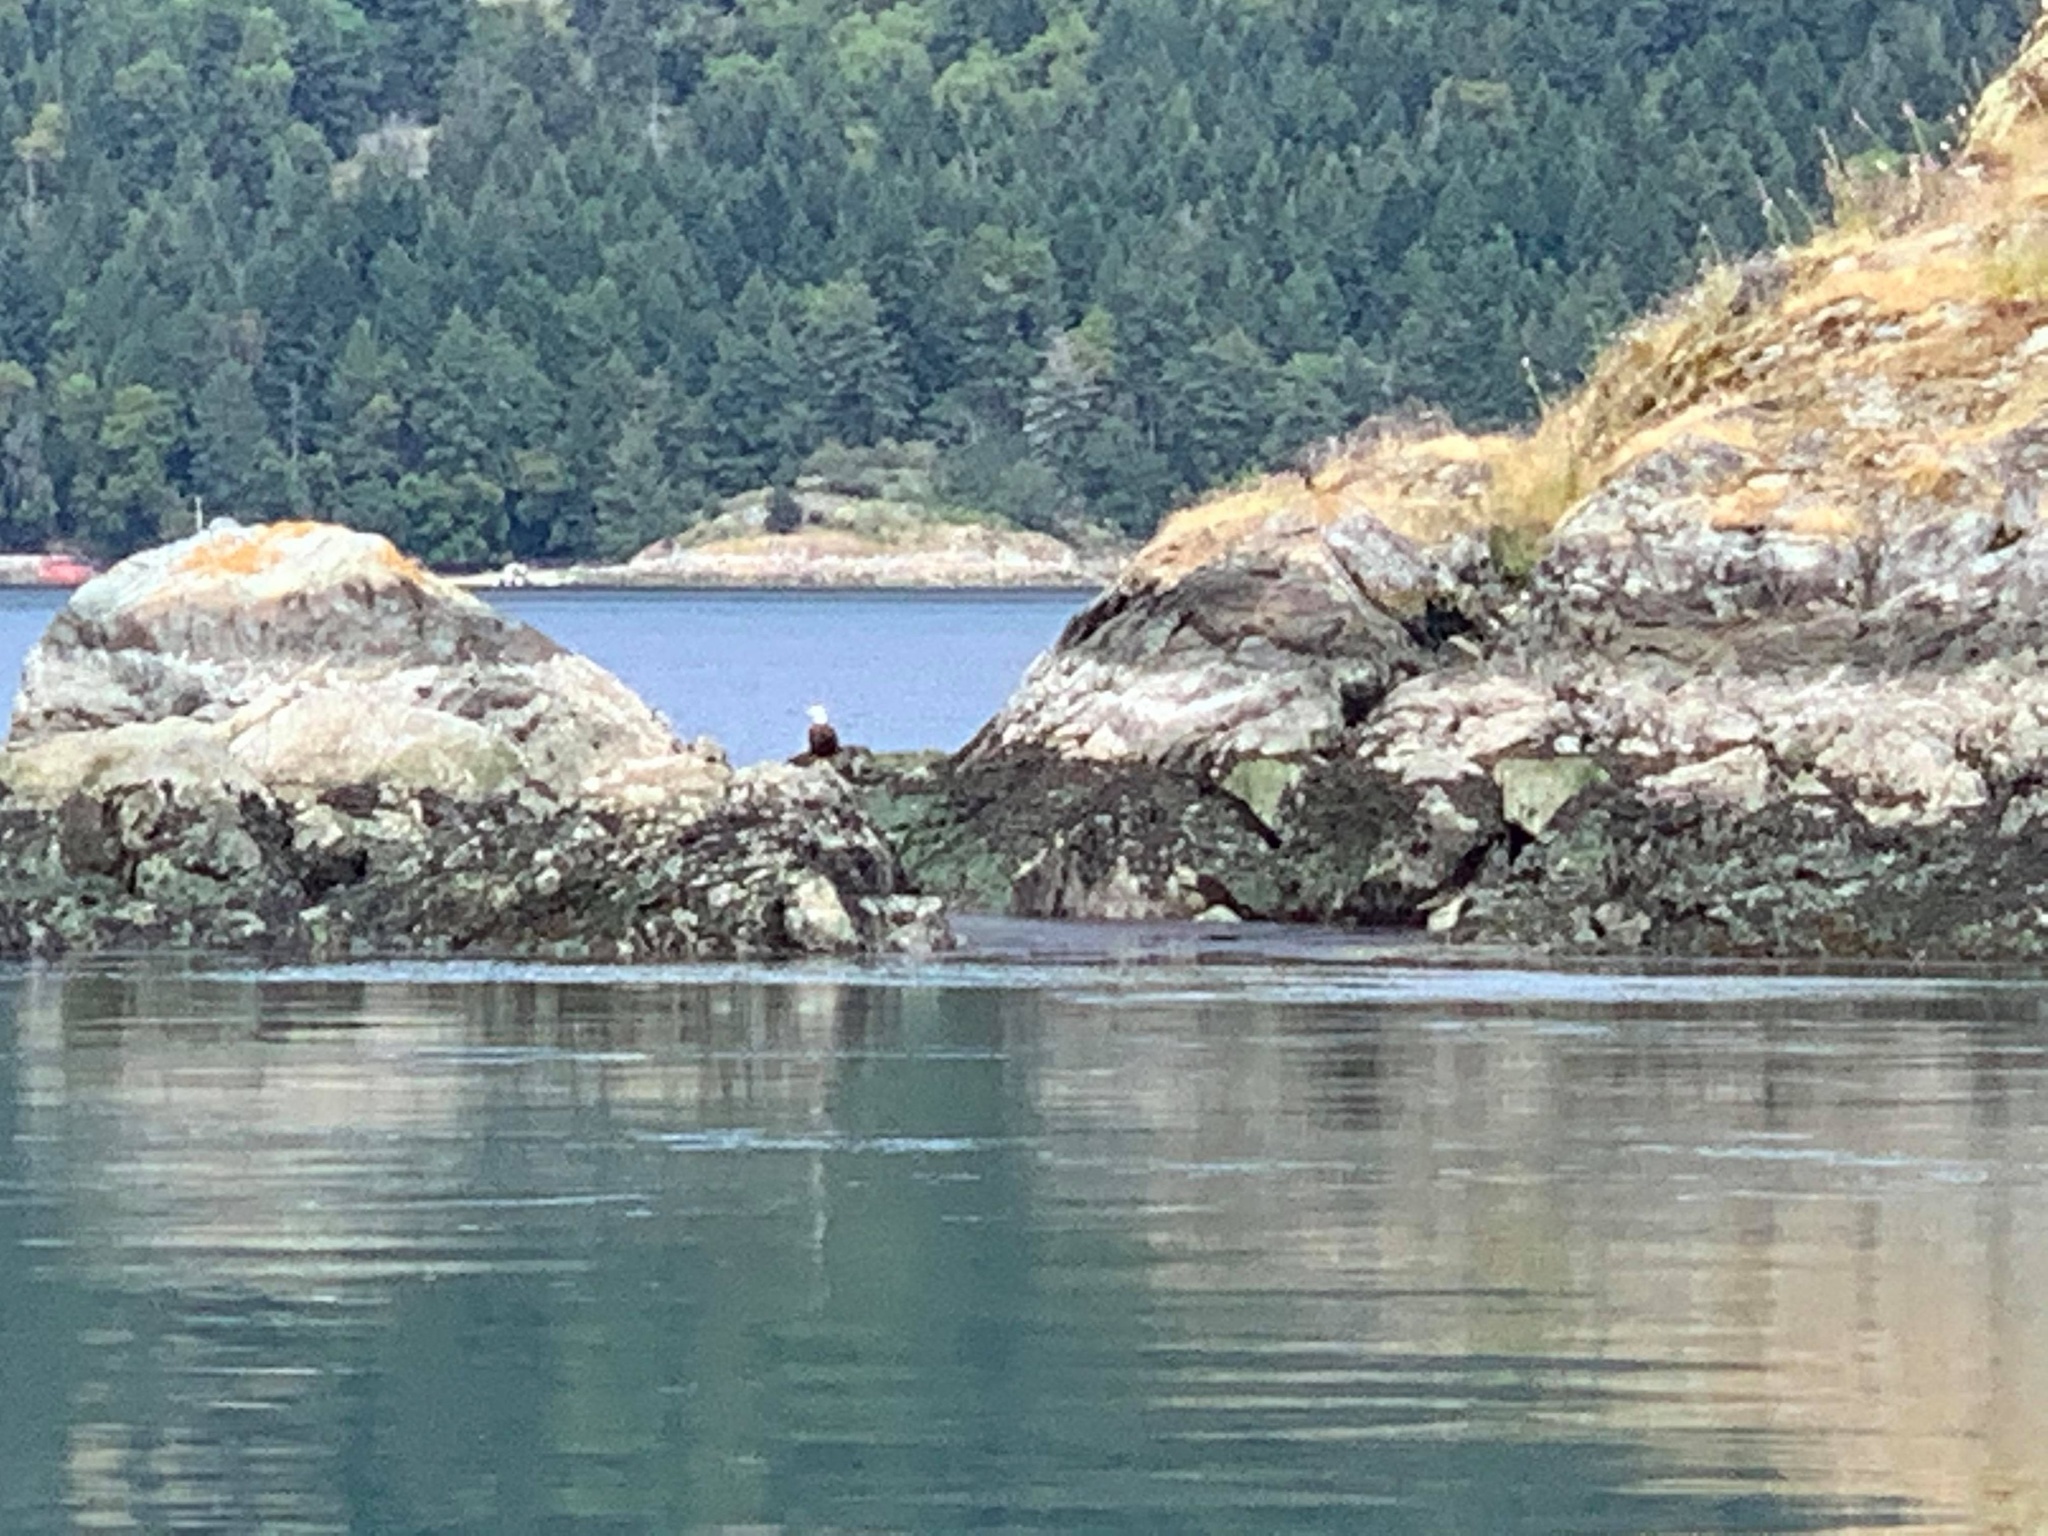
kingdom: Animalia
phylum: Chordata
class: Aves
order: Accipitriformes
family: Accipitridae
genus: Haliaeetus
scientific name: Haliaeetus leucocephalus
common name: Bald eagle
